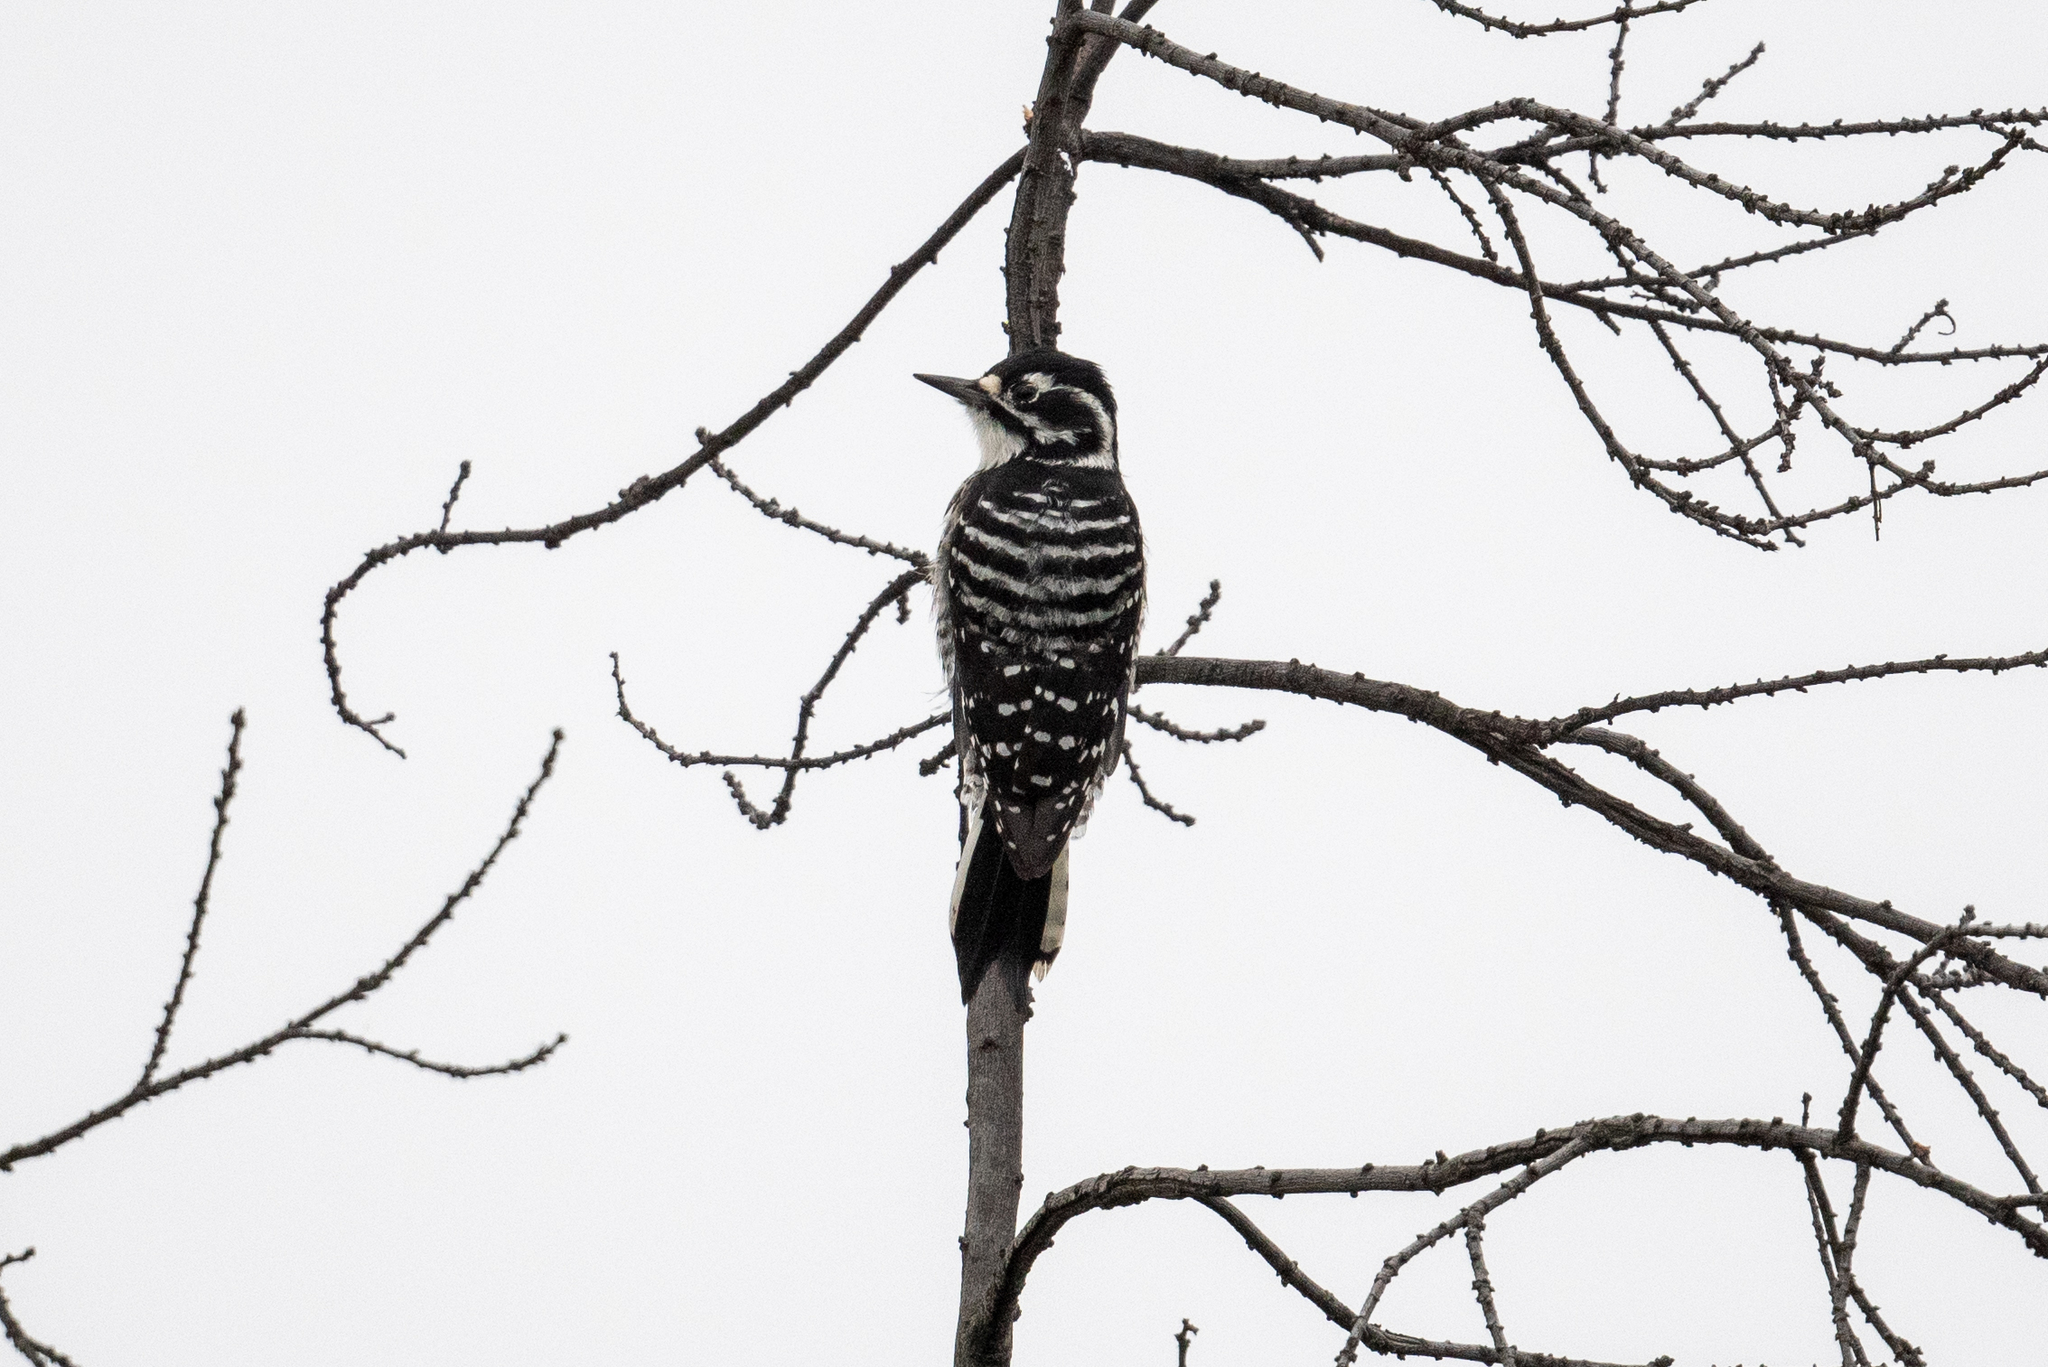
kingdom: Animalia
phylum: Chordata
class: Aves
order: Piciformes
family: Picidae
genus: Dryobates
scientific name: Dryobates nuttallii
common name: Nuttall's woodpecker
